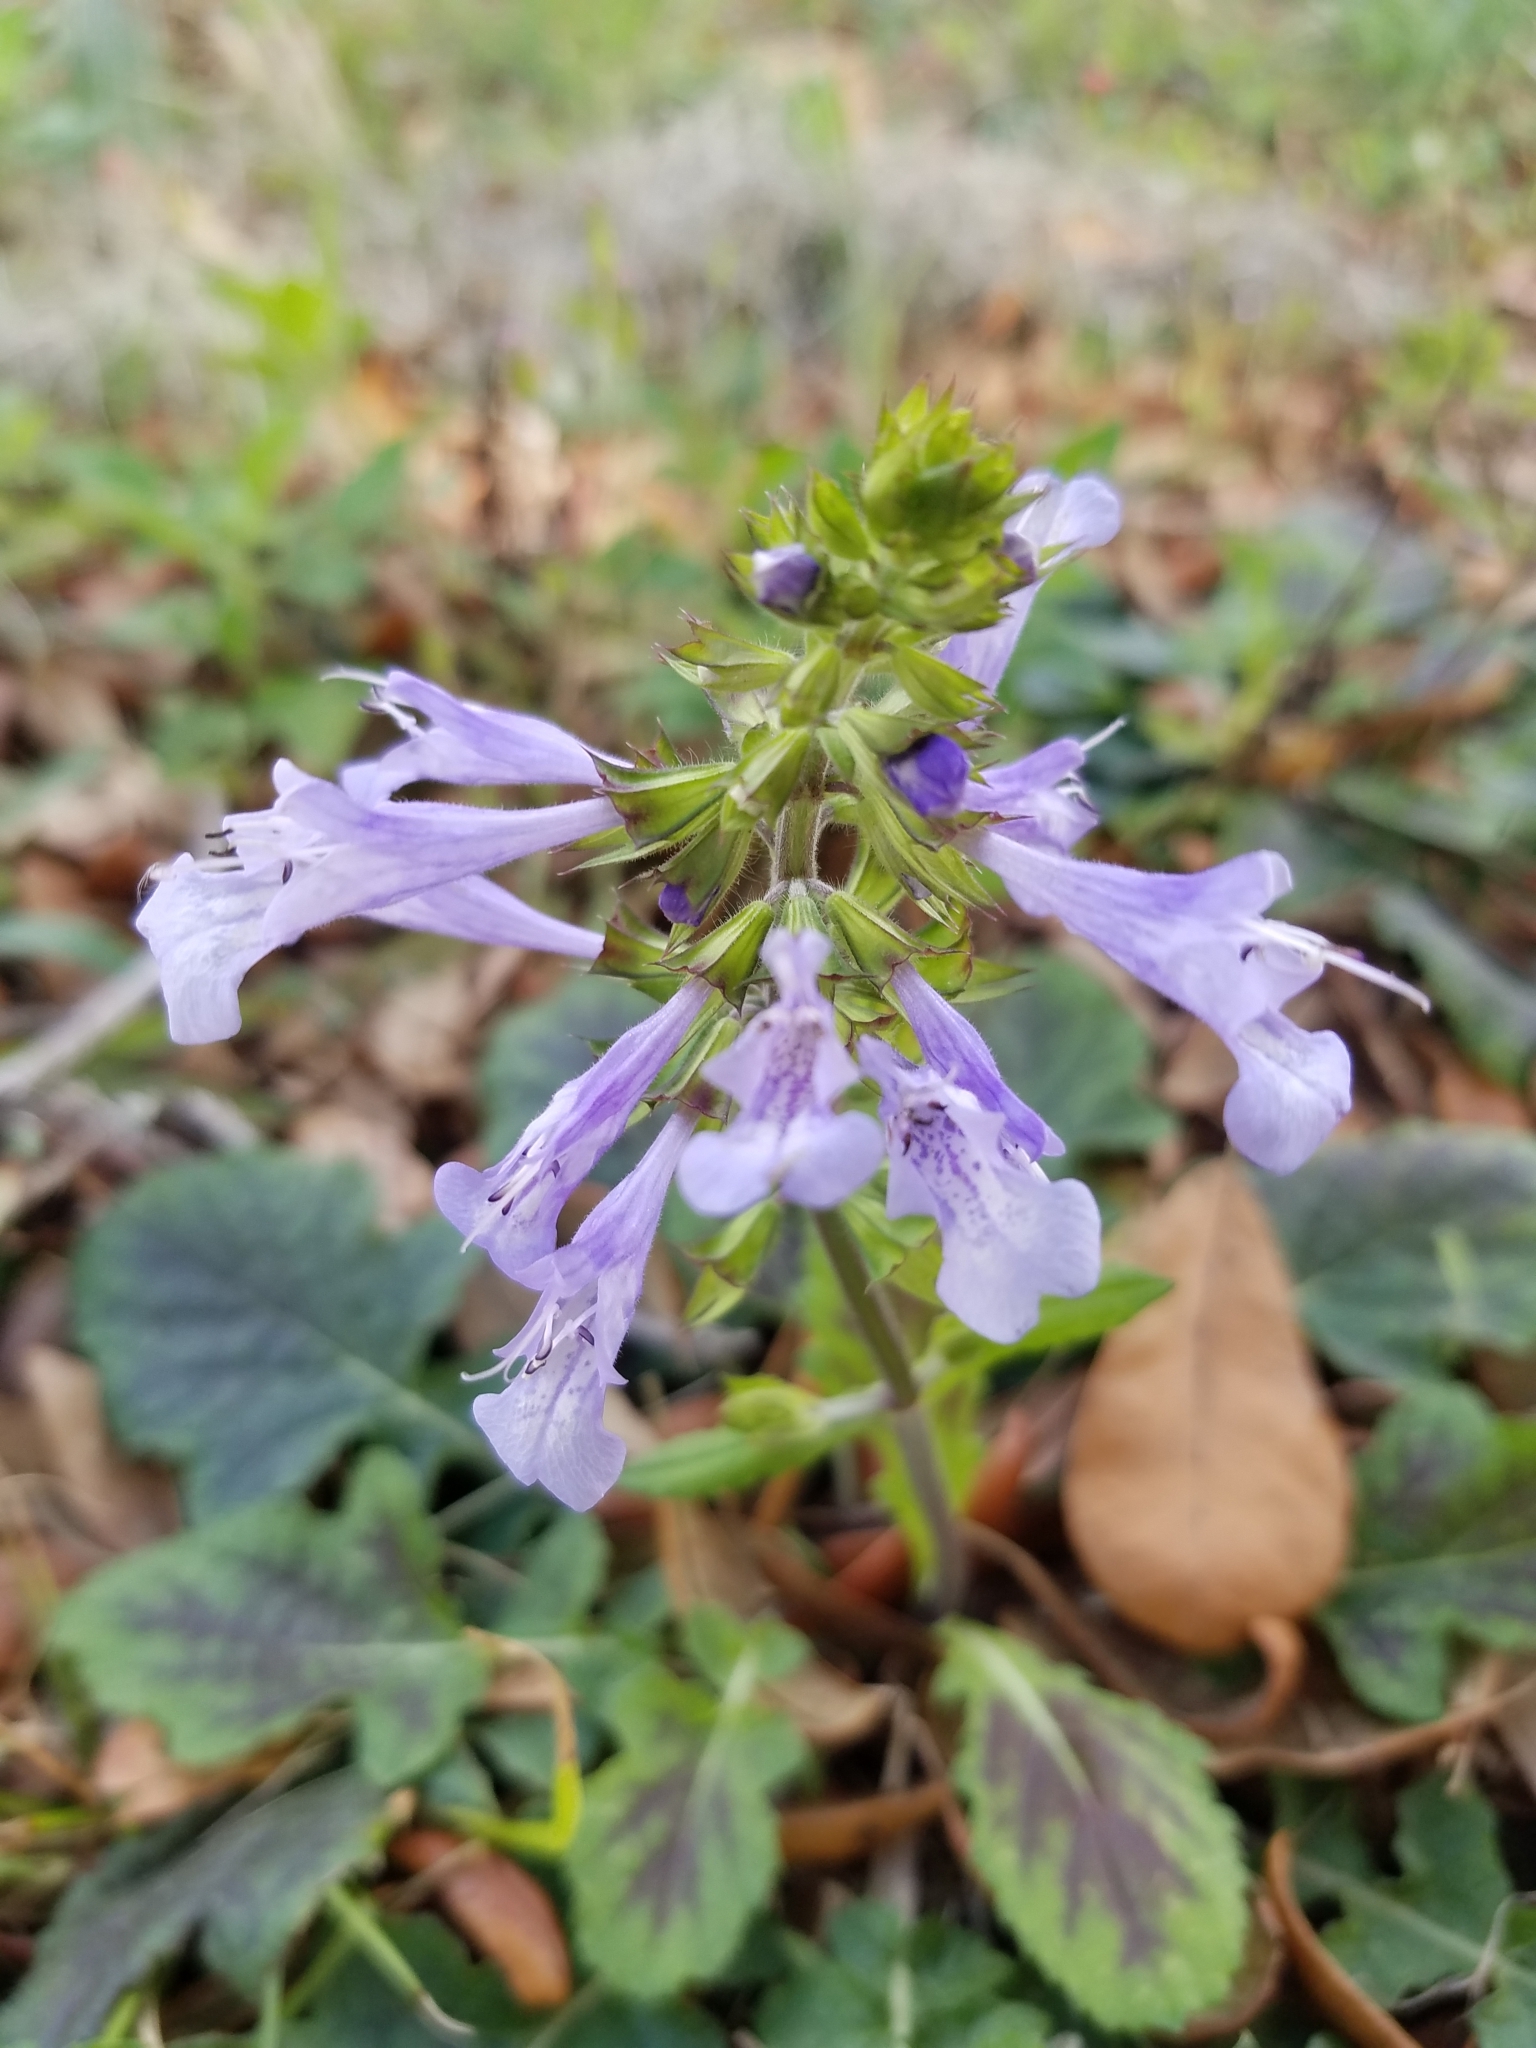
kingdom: Plantae
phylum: Tracheophyta
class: Magnoliopsida
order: Lamiales
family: Lamiaceae
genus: Salvia
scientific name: Salvia lyrata
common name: Cancerweed
